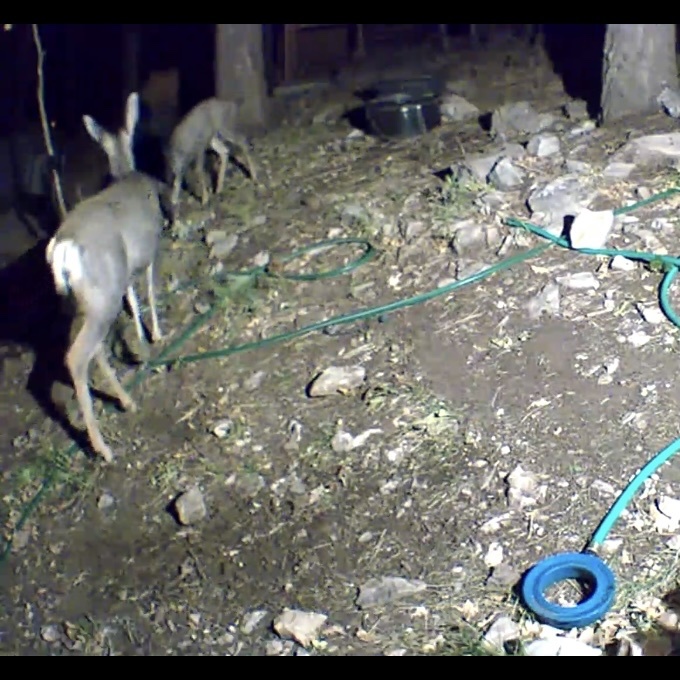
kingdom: Animalia
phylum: Chordata
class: Mammalia
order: Artiodactyla
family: Cervidae
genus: Odocoileus
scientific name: Odocoileus hemionus
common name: Mule deer
